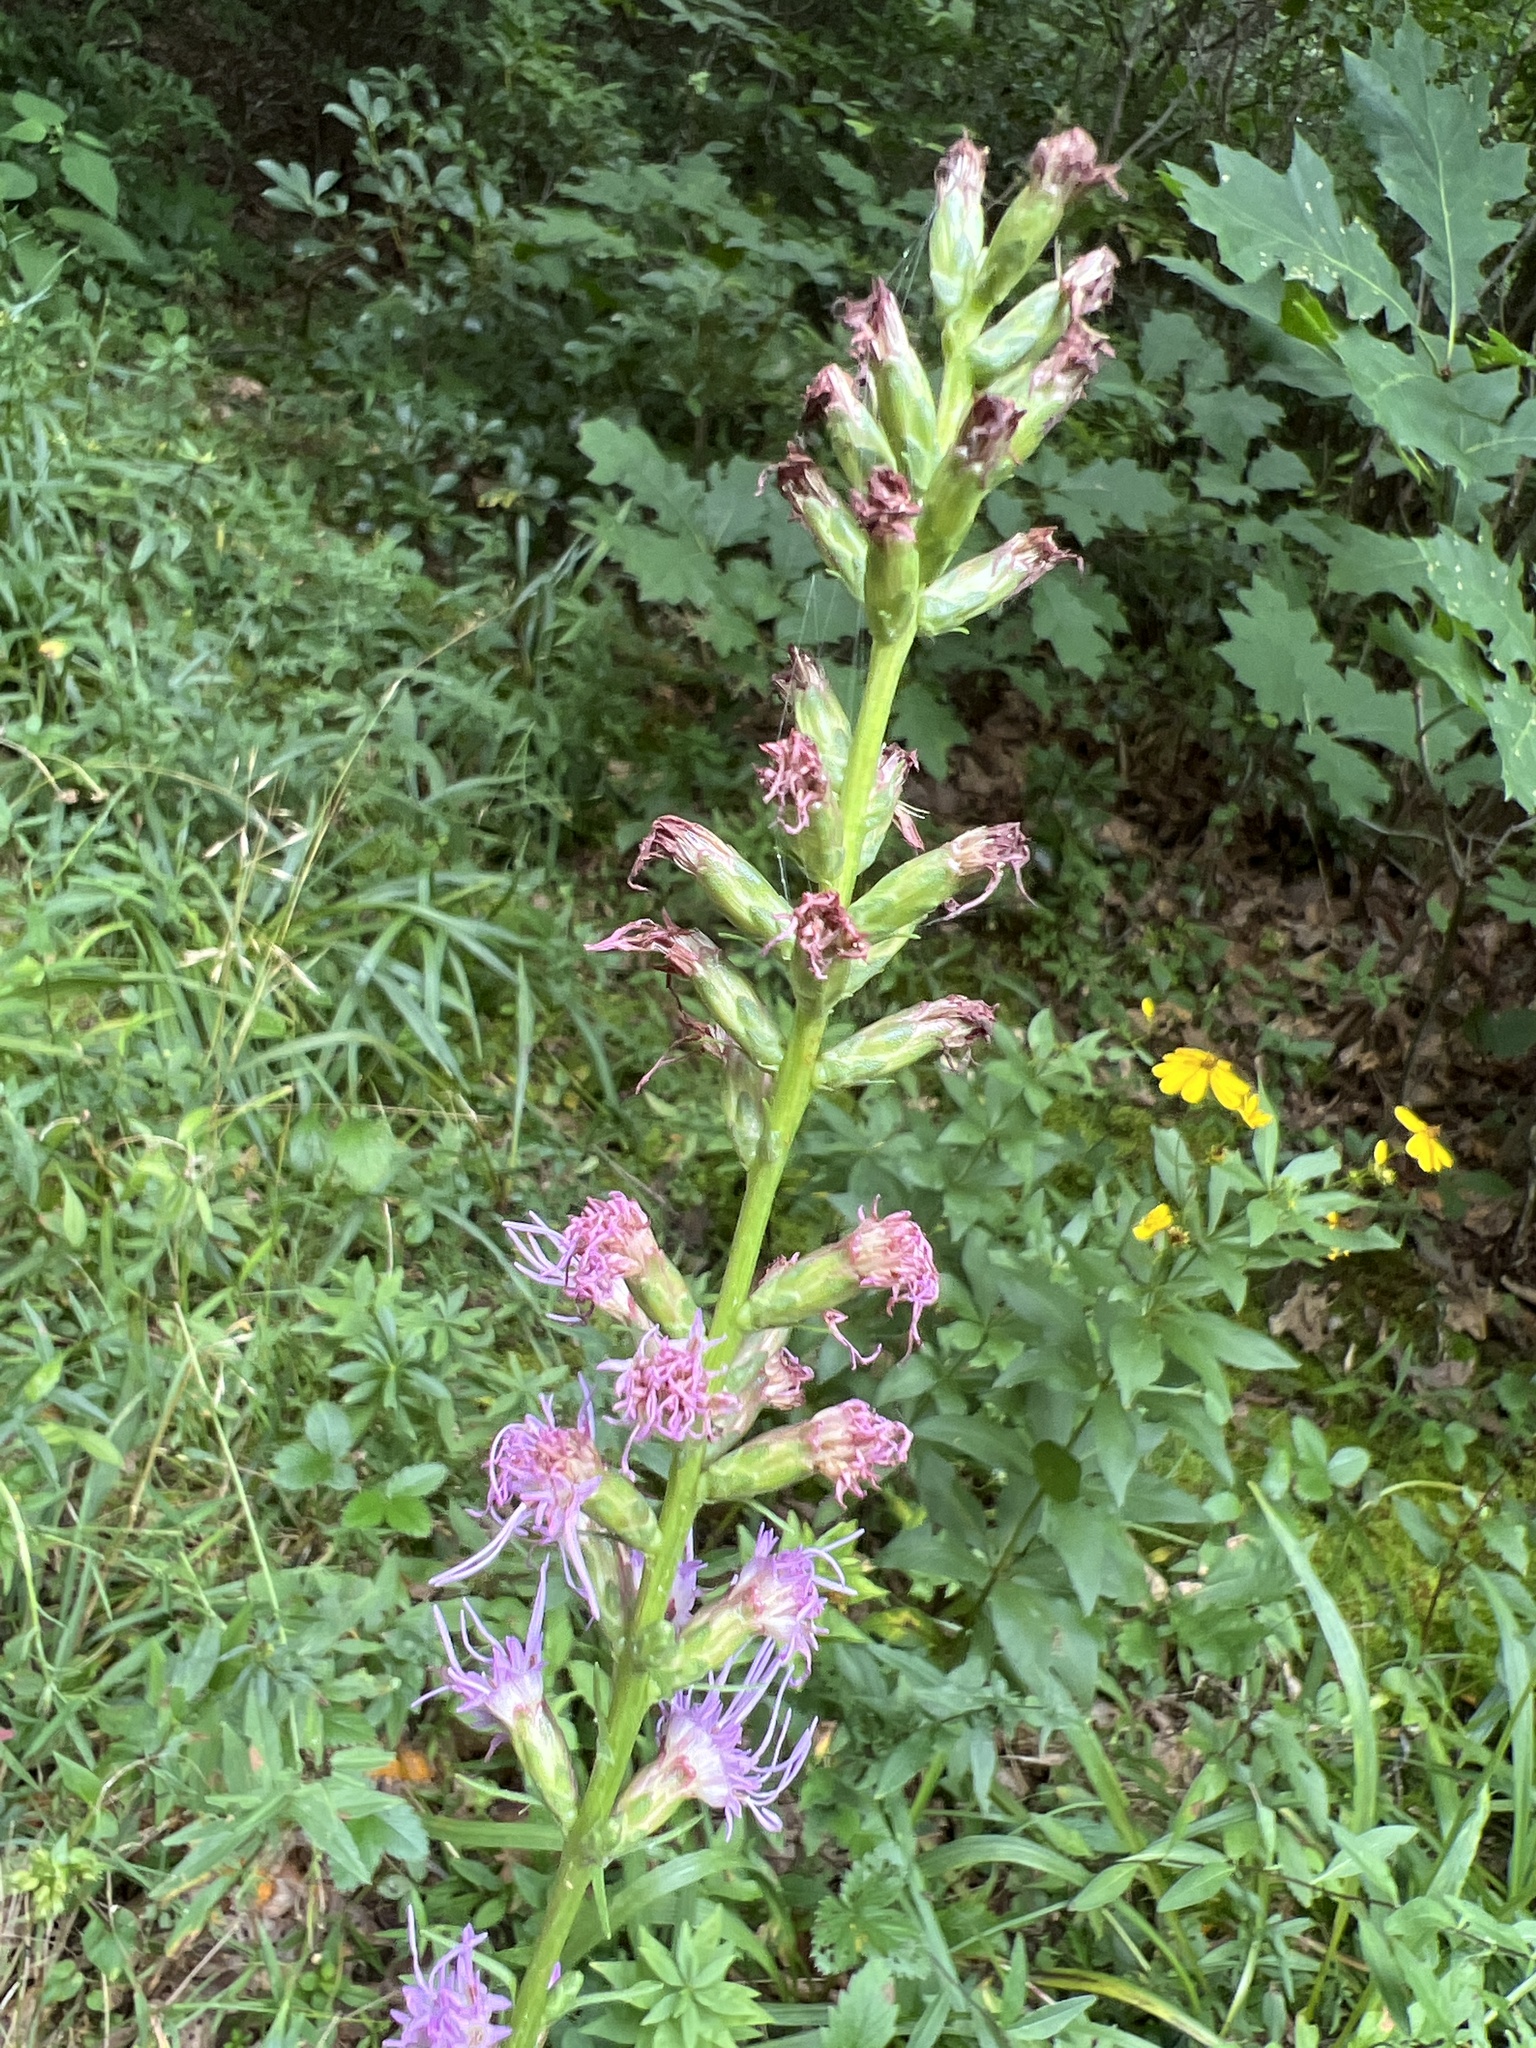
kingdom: Plantae
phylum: Tracheophyta
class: Magnoliopsida
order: Asterales
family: Asteraceae
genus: Liatris
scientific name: Liatris spicata
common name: Florist gayfeather
